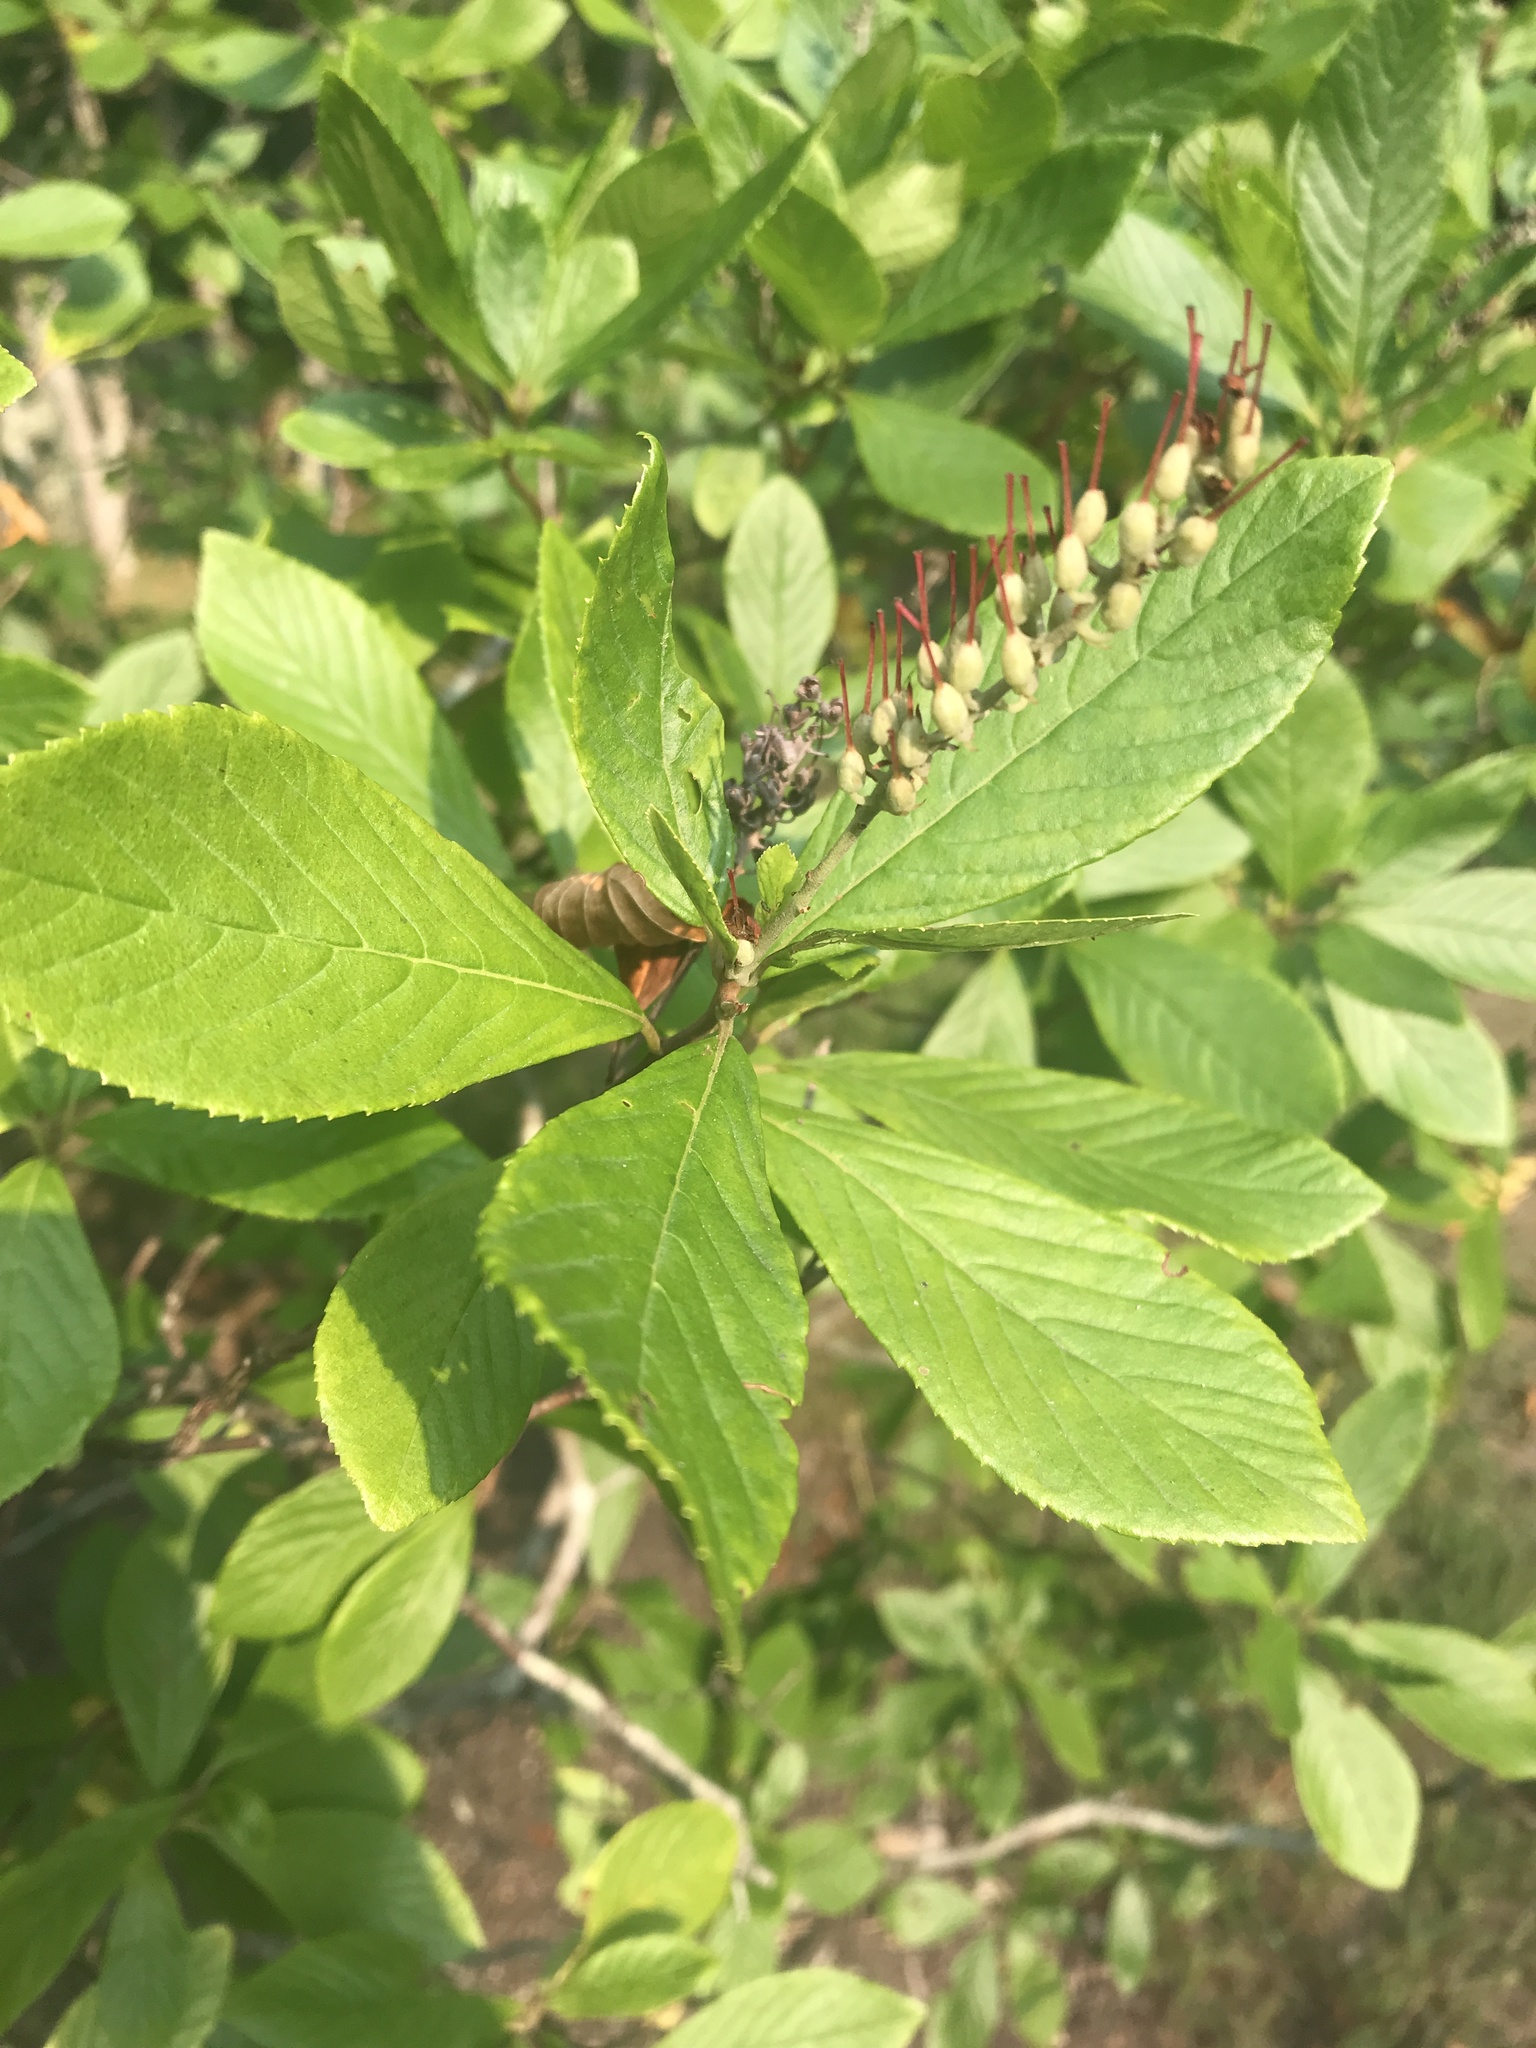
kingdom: Plantae
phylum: Tracheophyta
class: Magnoliopsida
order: Ericales
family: Clethraceae
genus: Clethra
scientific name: Clethra alnifolia
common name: Sweet pepperbush
